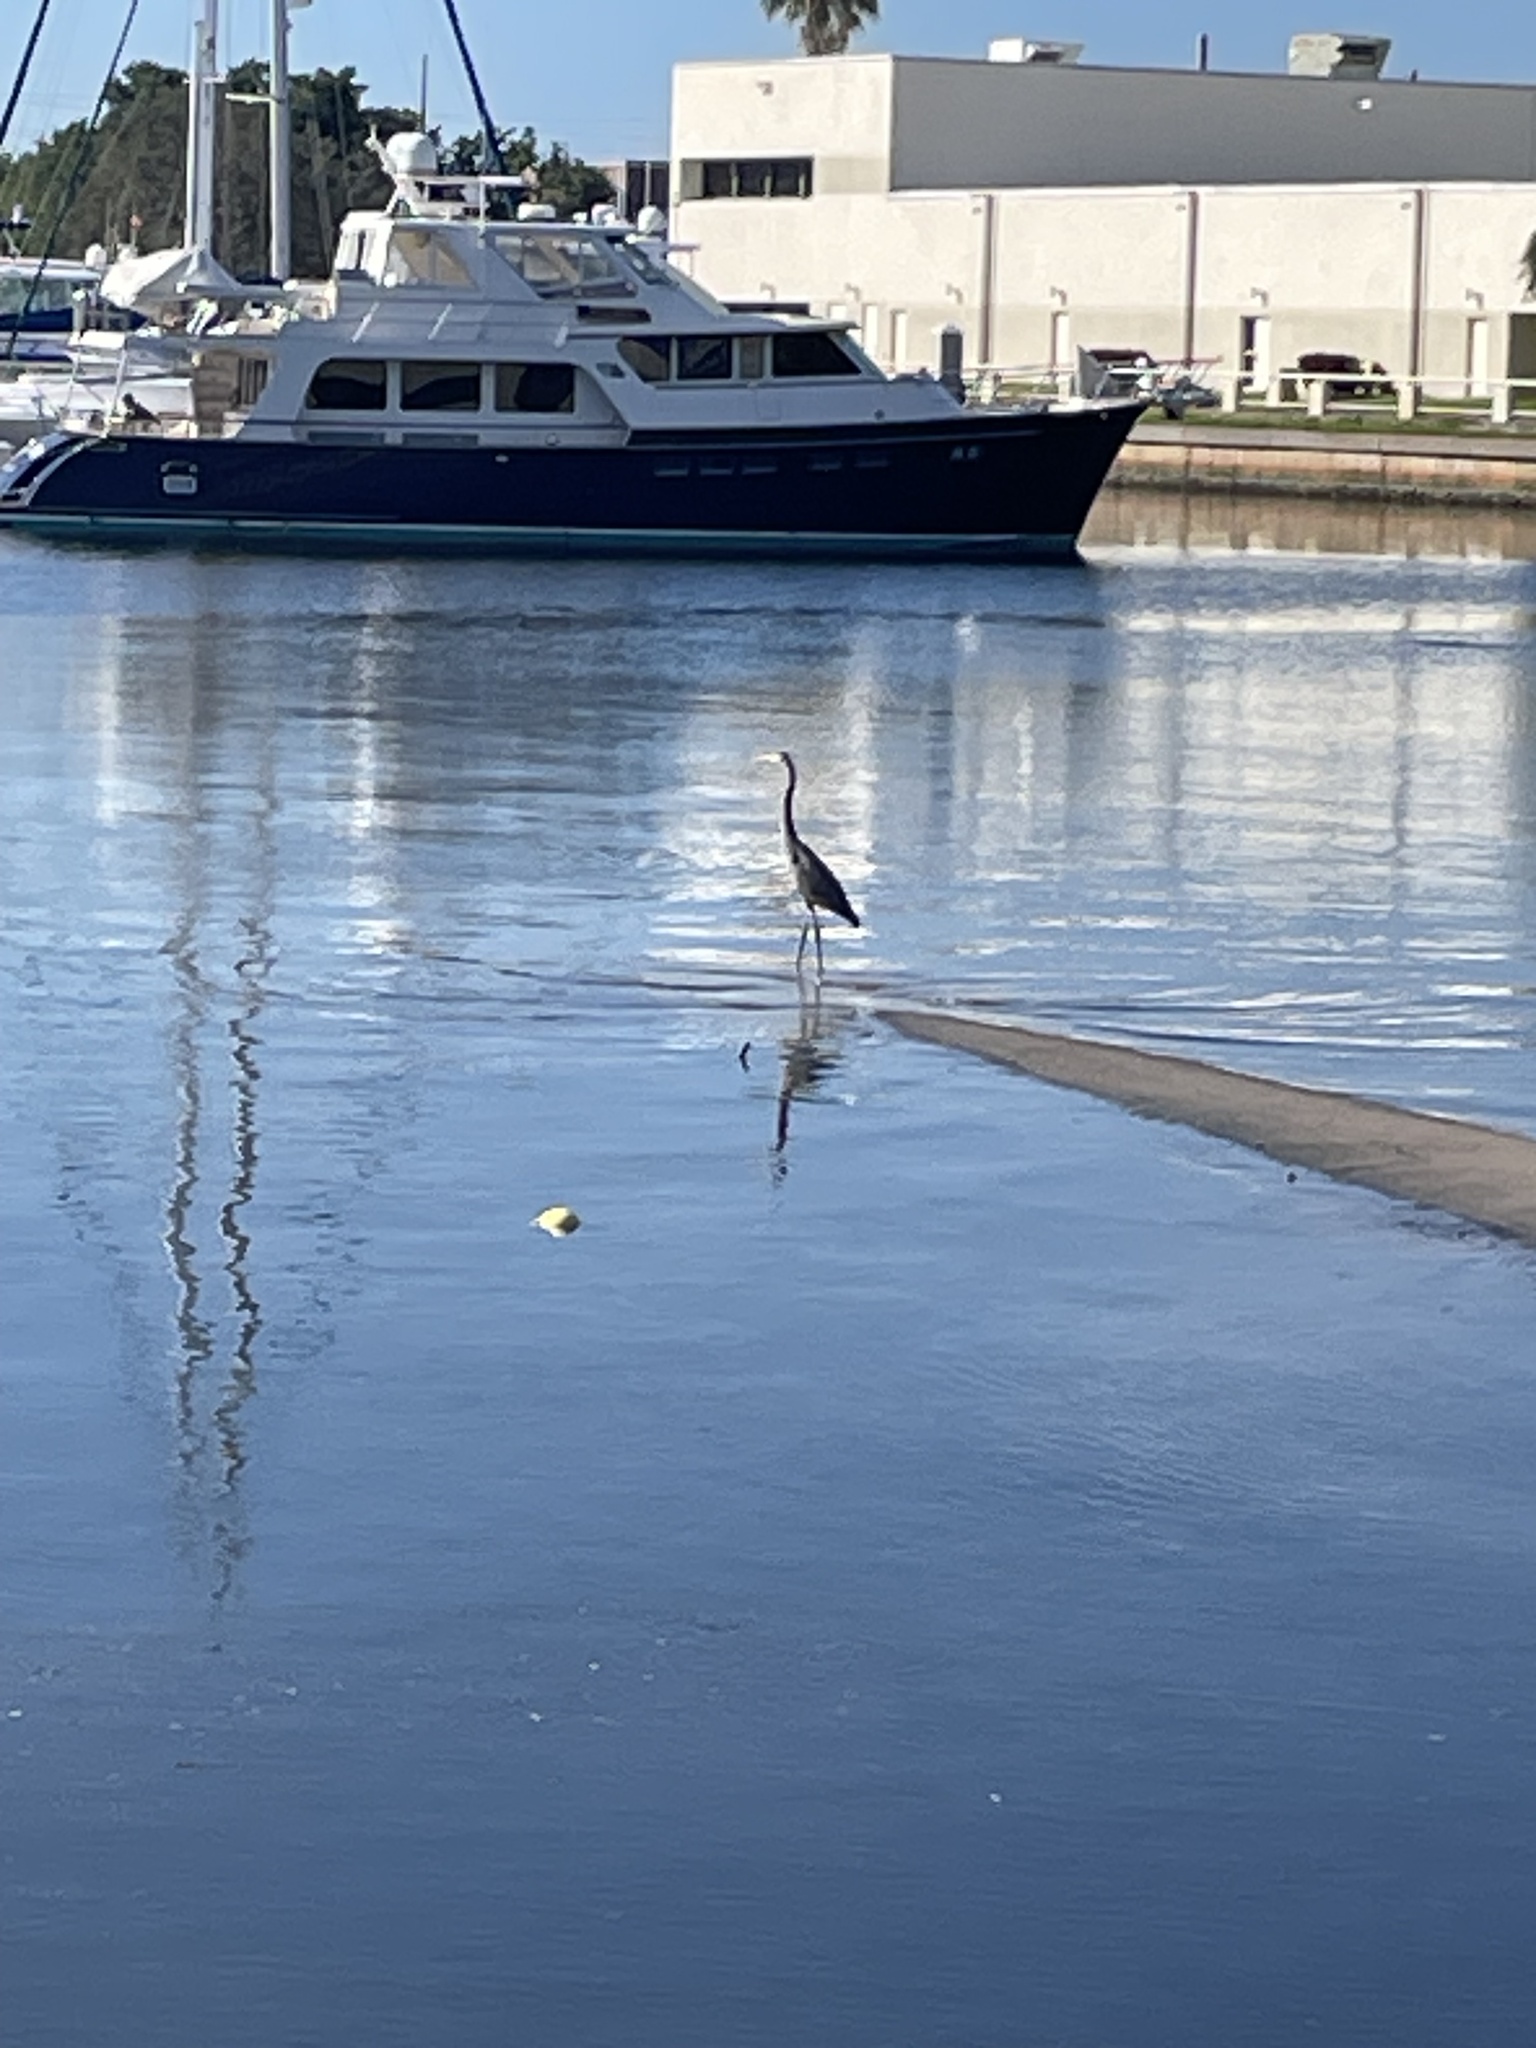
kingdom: Animalia
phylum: Chordata
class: Aves
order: Pelecaniformes
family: Ardeidae
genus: Ardea
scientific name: Ardea herodias
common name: Great blue heron
